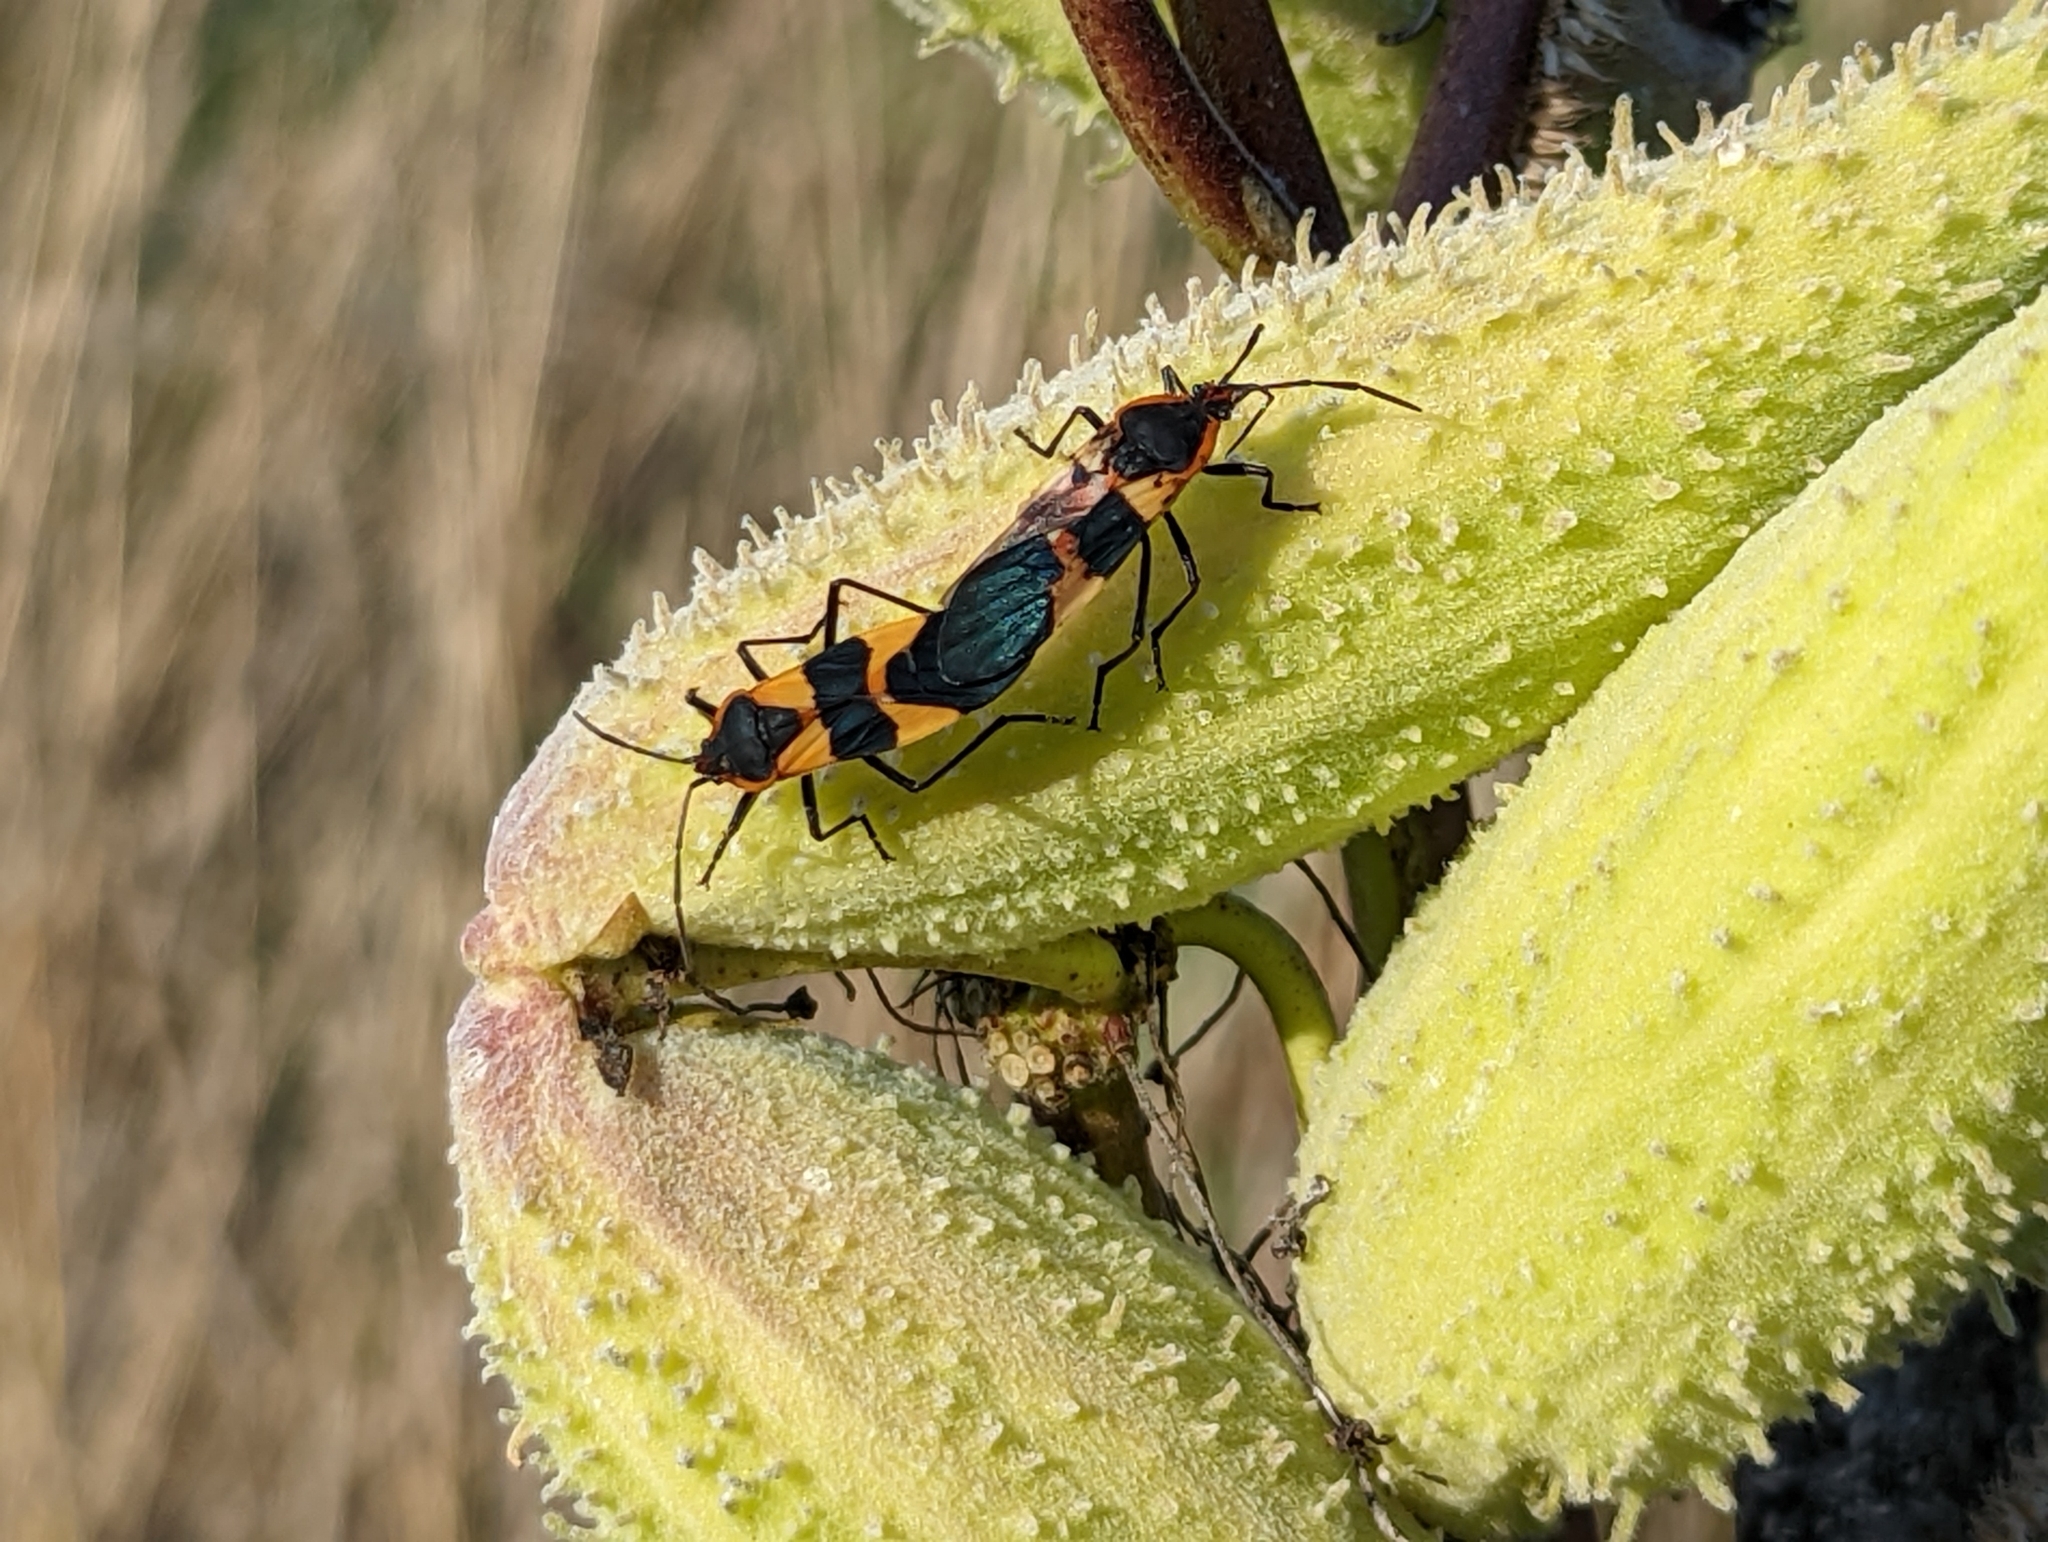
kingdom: Animalia
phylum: Arthropoda
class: Insecta
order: Hemiptera
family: Lygaeidae
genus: Oncopeltus
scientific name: Oncopeltus fasciatus
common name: Large milkweed bug
